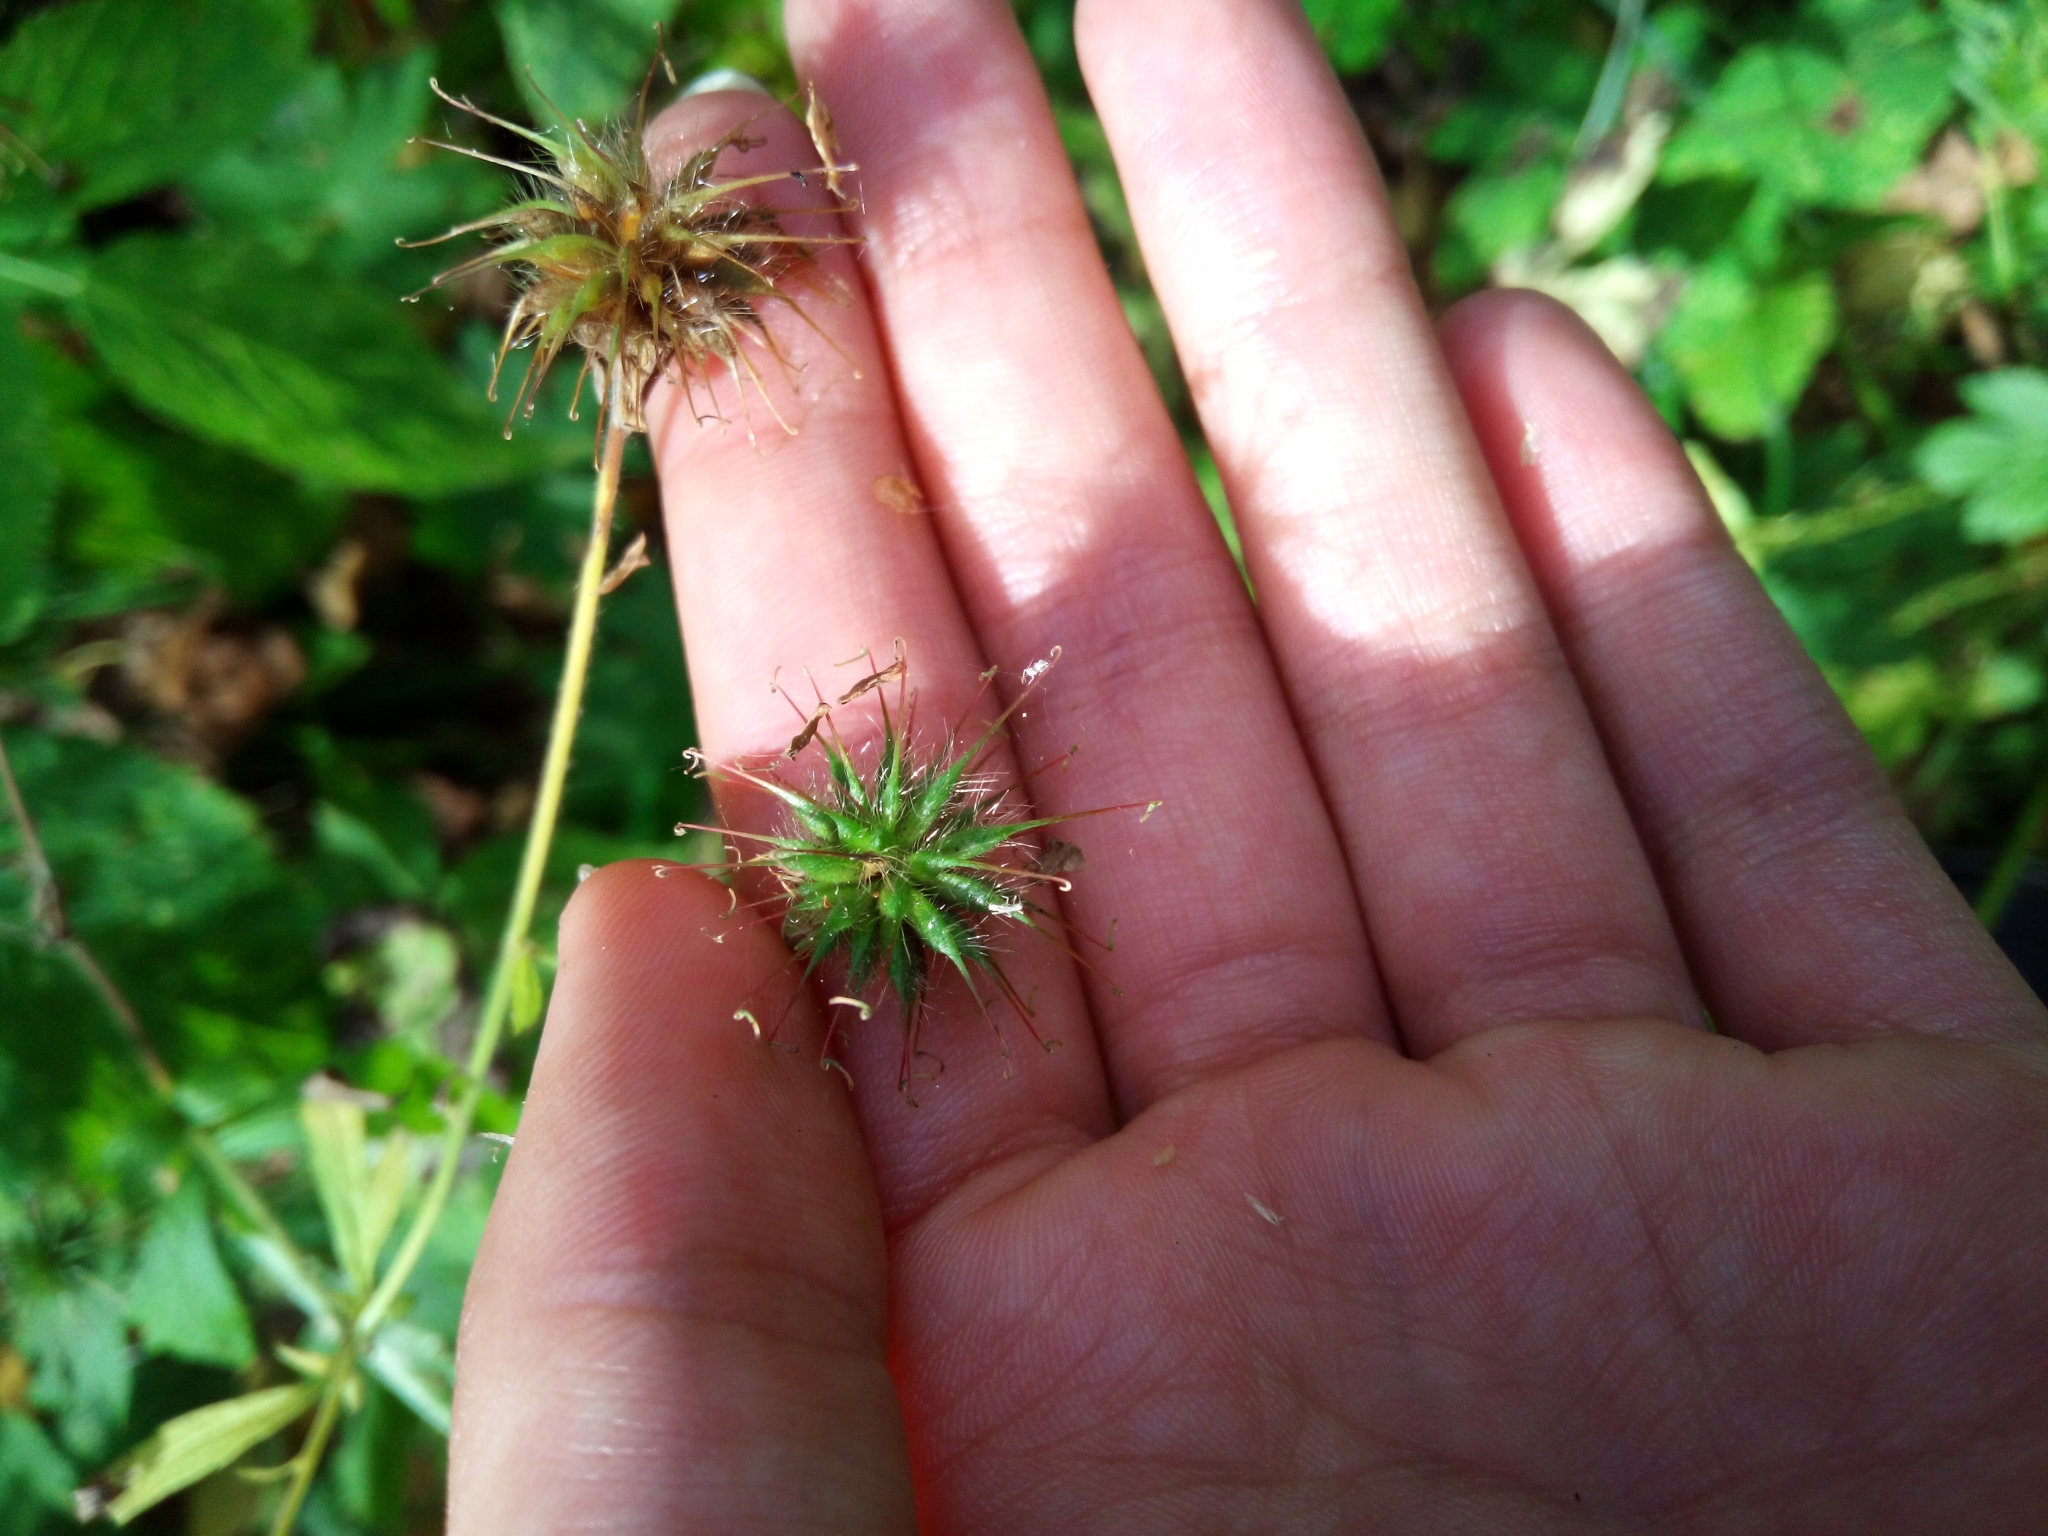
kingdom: Plantae
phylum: Tracheophyta
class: Magnoliopsida
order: Rosales
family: Rosaceae
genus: Geum
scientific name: Geum urbanum
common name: Wood avens
